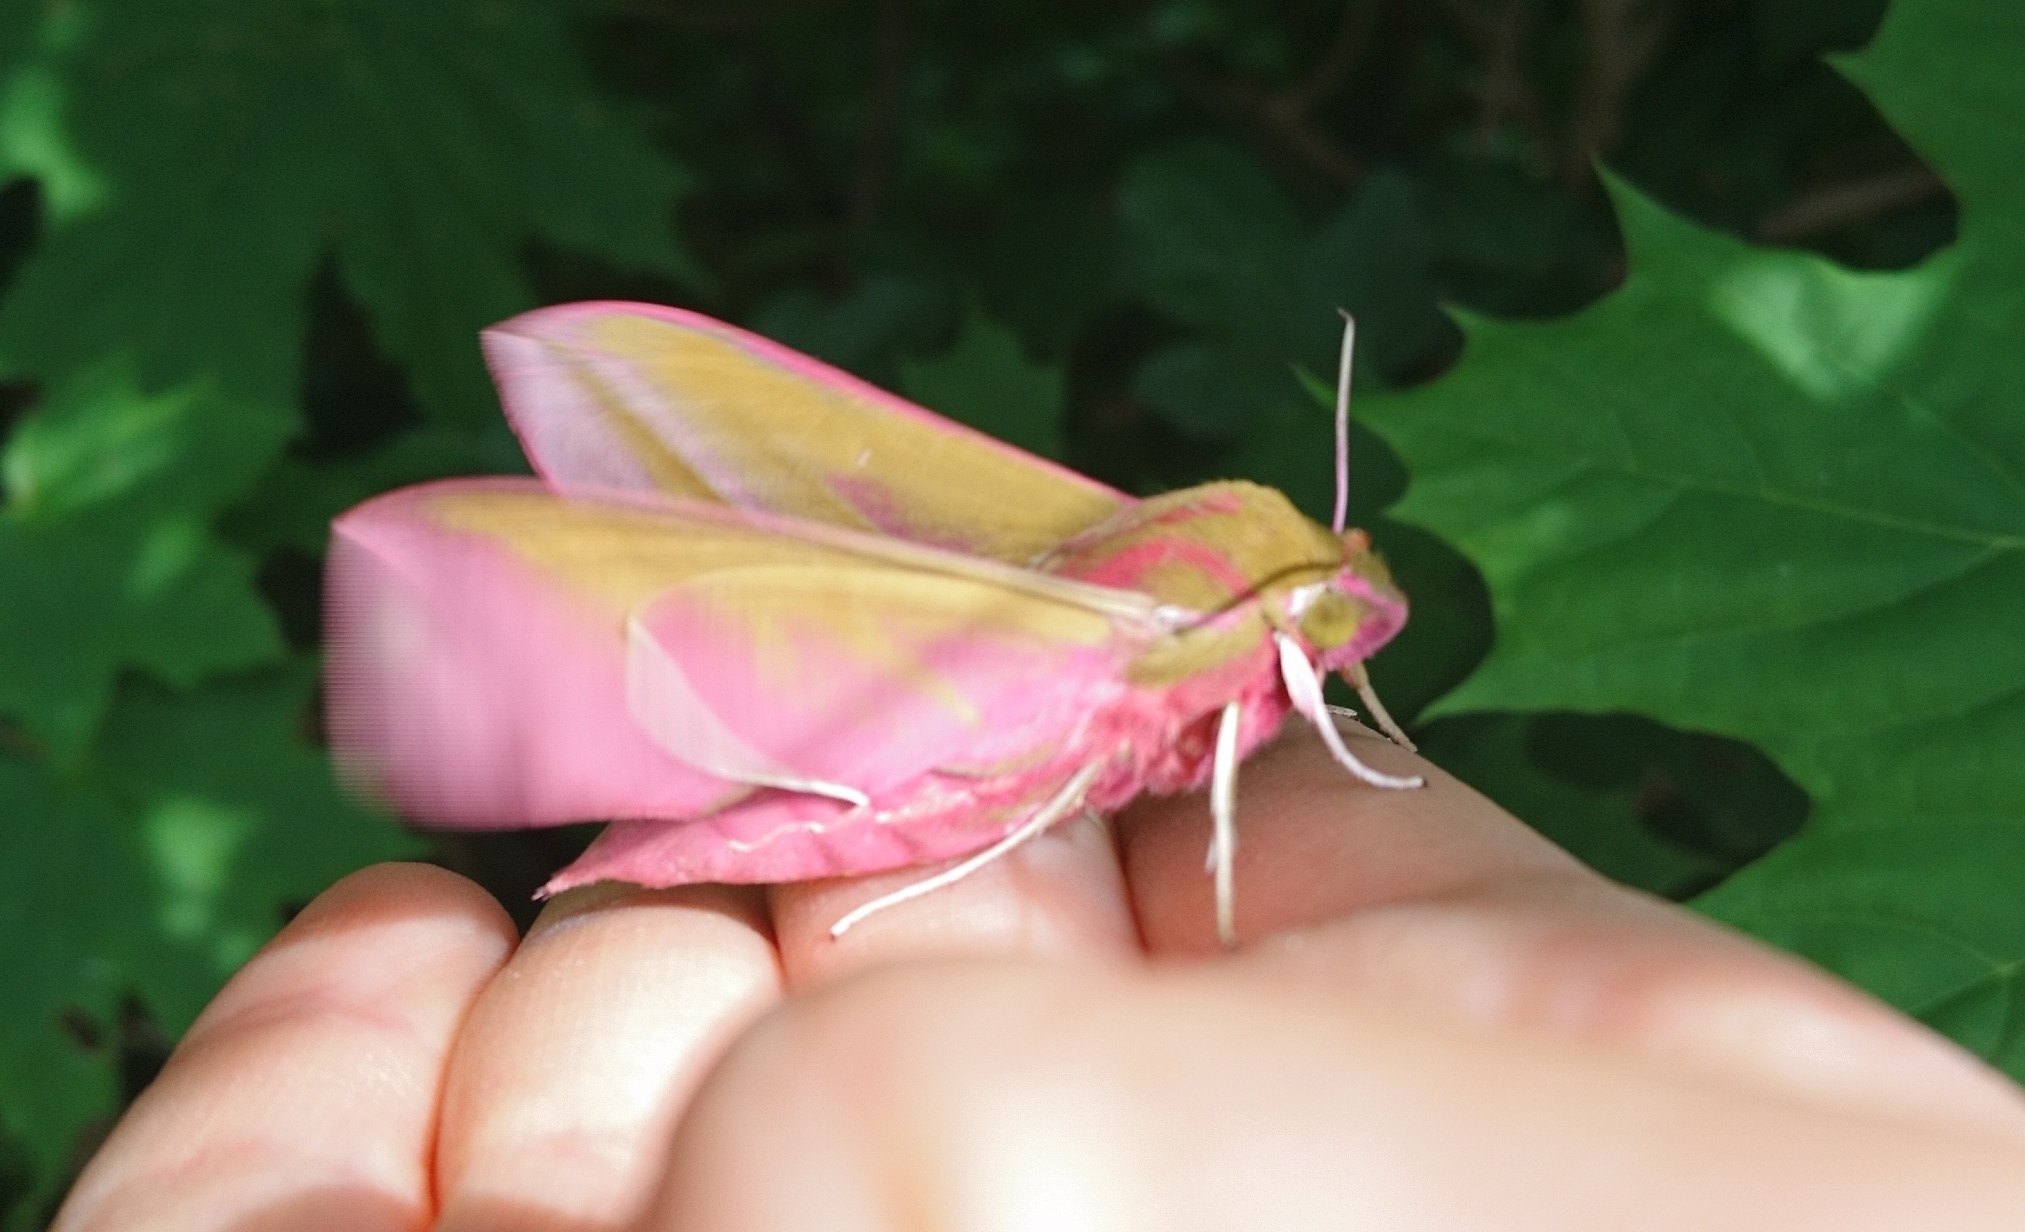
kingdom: Animalia
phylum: Arthropoda
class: Insecta
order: Lepidoptera
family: Sphingidae
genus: Deilephila
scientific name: Deilephila elpenor
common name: Elephant hawk-moth
